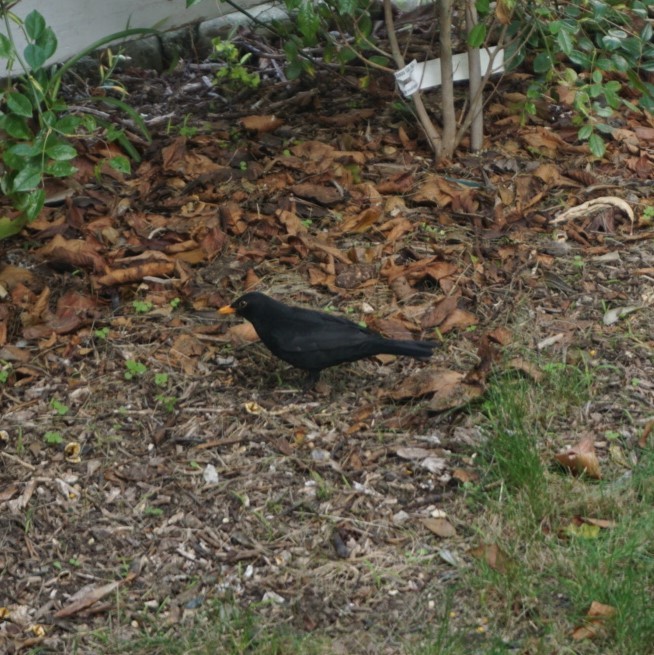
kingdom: Animalia
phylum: Chordata
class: Aves
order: Passeriformes
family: Turdidae
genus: Turdus
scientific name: Turdus merula
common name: Common blackbird
